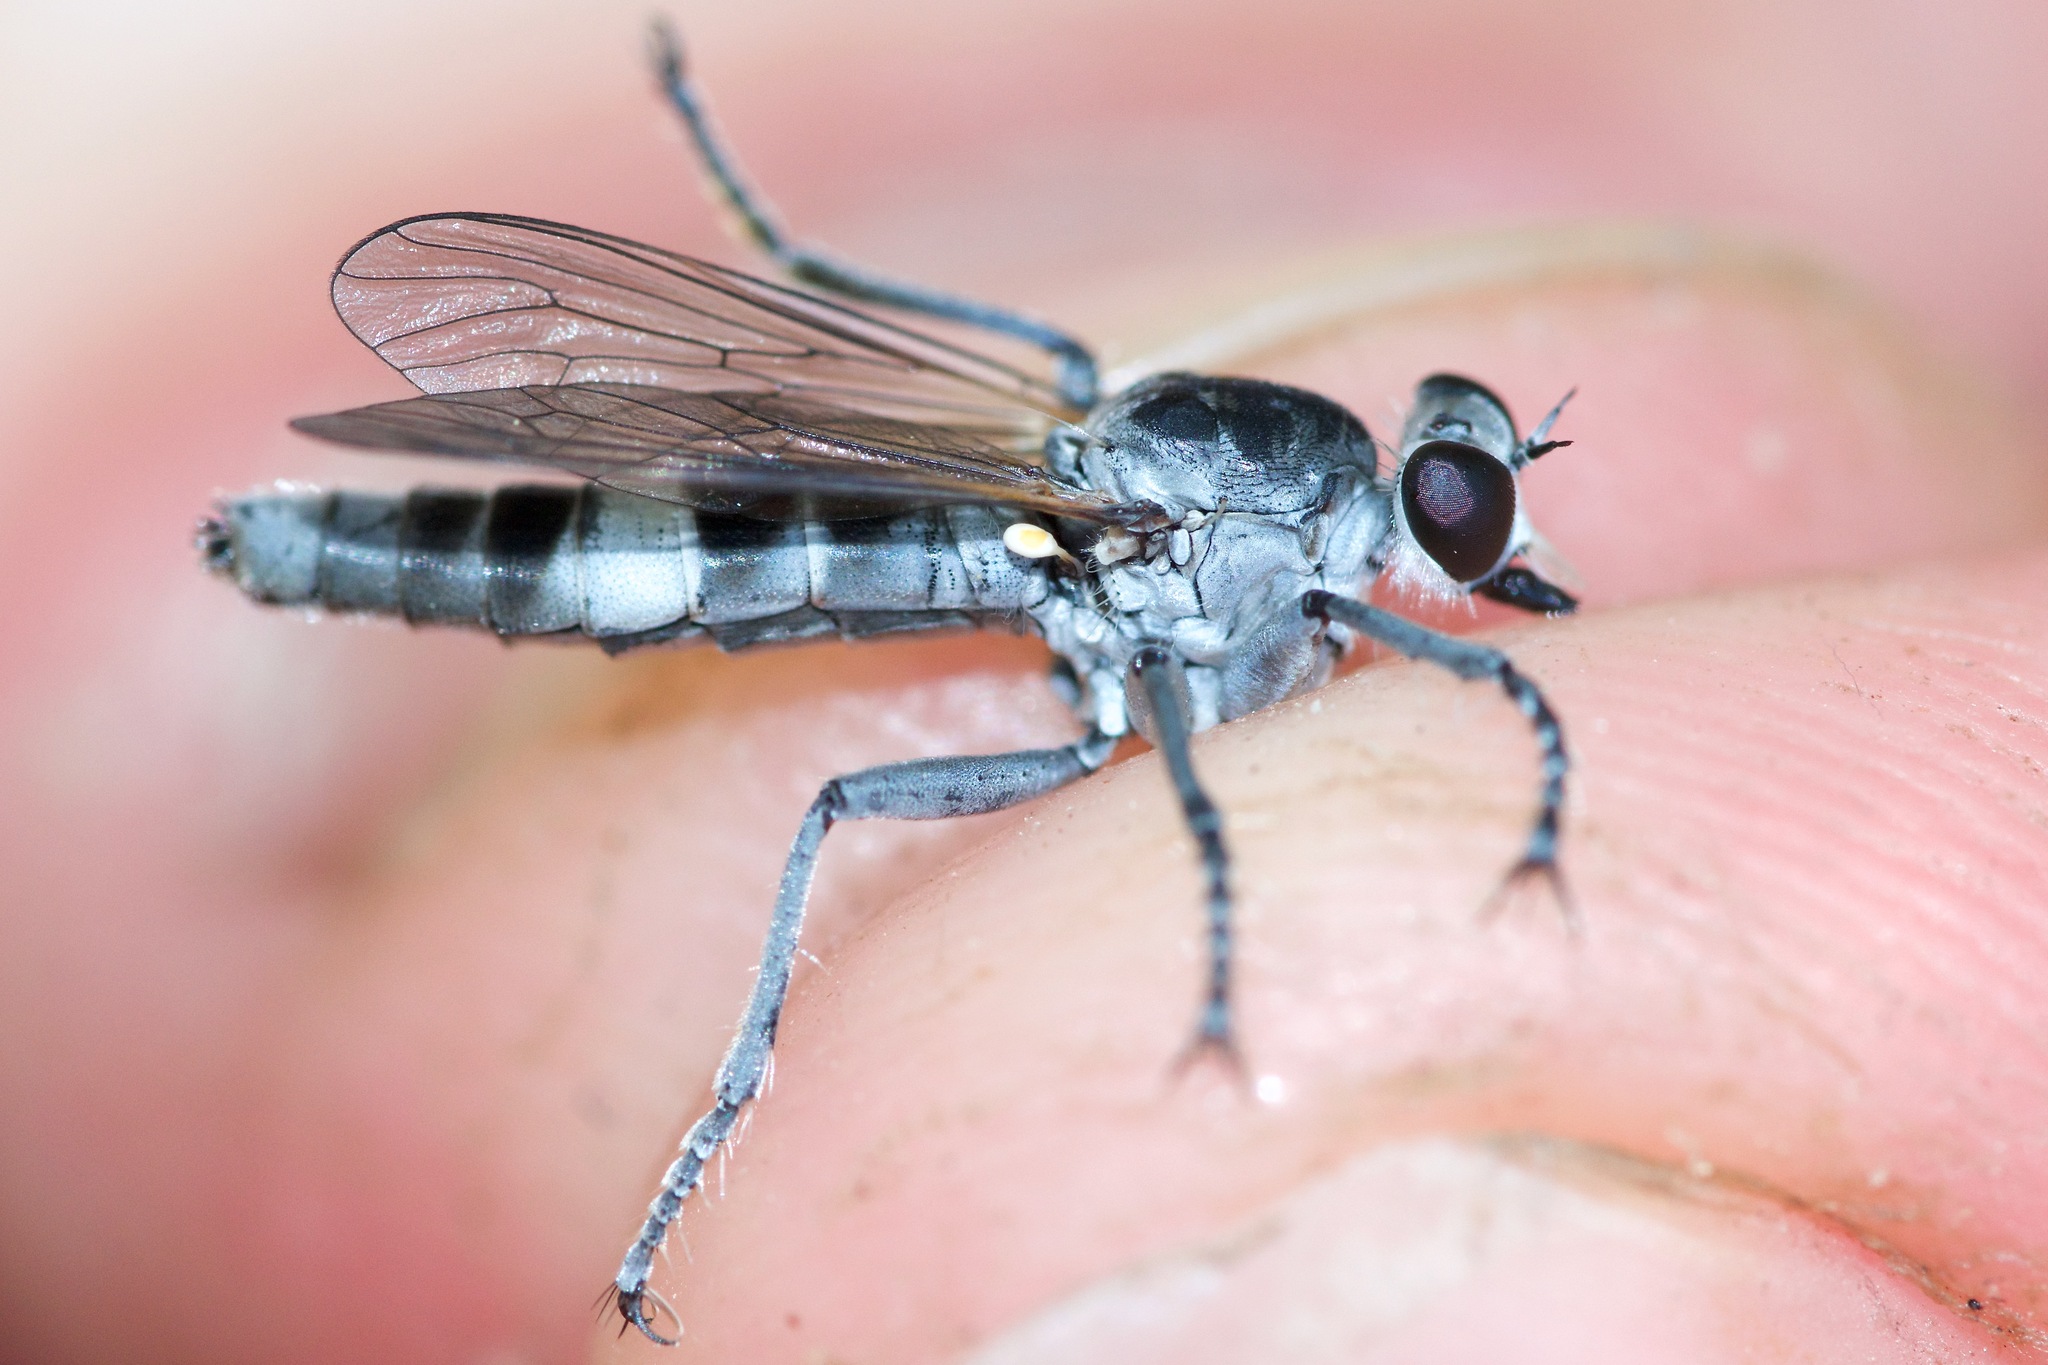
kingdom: Animalia
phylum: Arthropoda
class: Insecta
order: Diptera
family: Asilidae
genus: Stichopogon
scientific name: Stichopogon trifasciatus
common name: Three-banded robber fly
